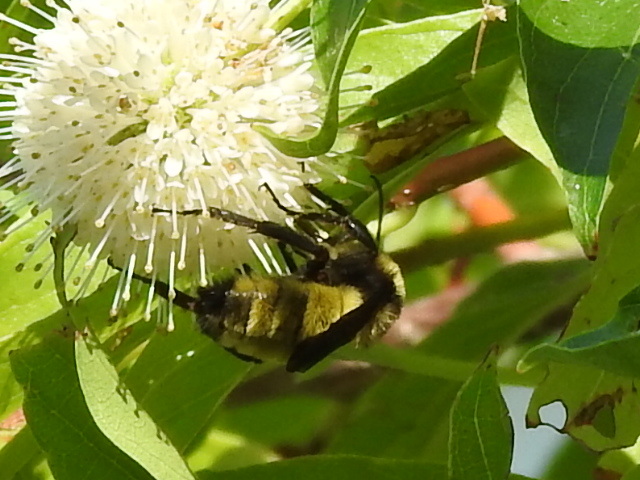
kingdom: Animalia
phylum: Arthropoda
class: Insecta
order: Hymenoptera
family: Apidae
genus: Bombus
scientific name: Bombus pensylvanicus
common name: Bumble bee
